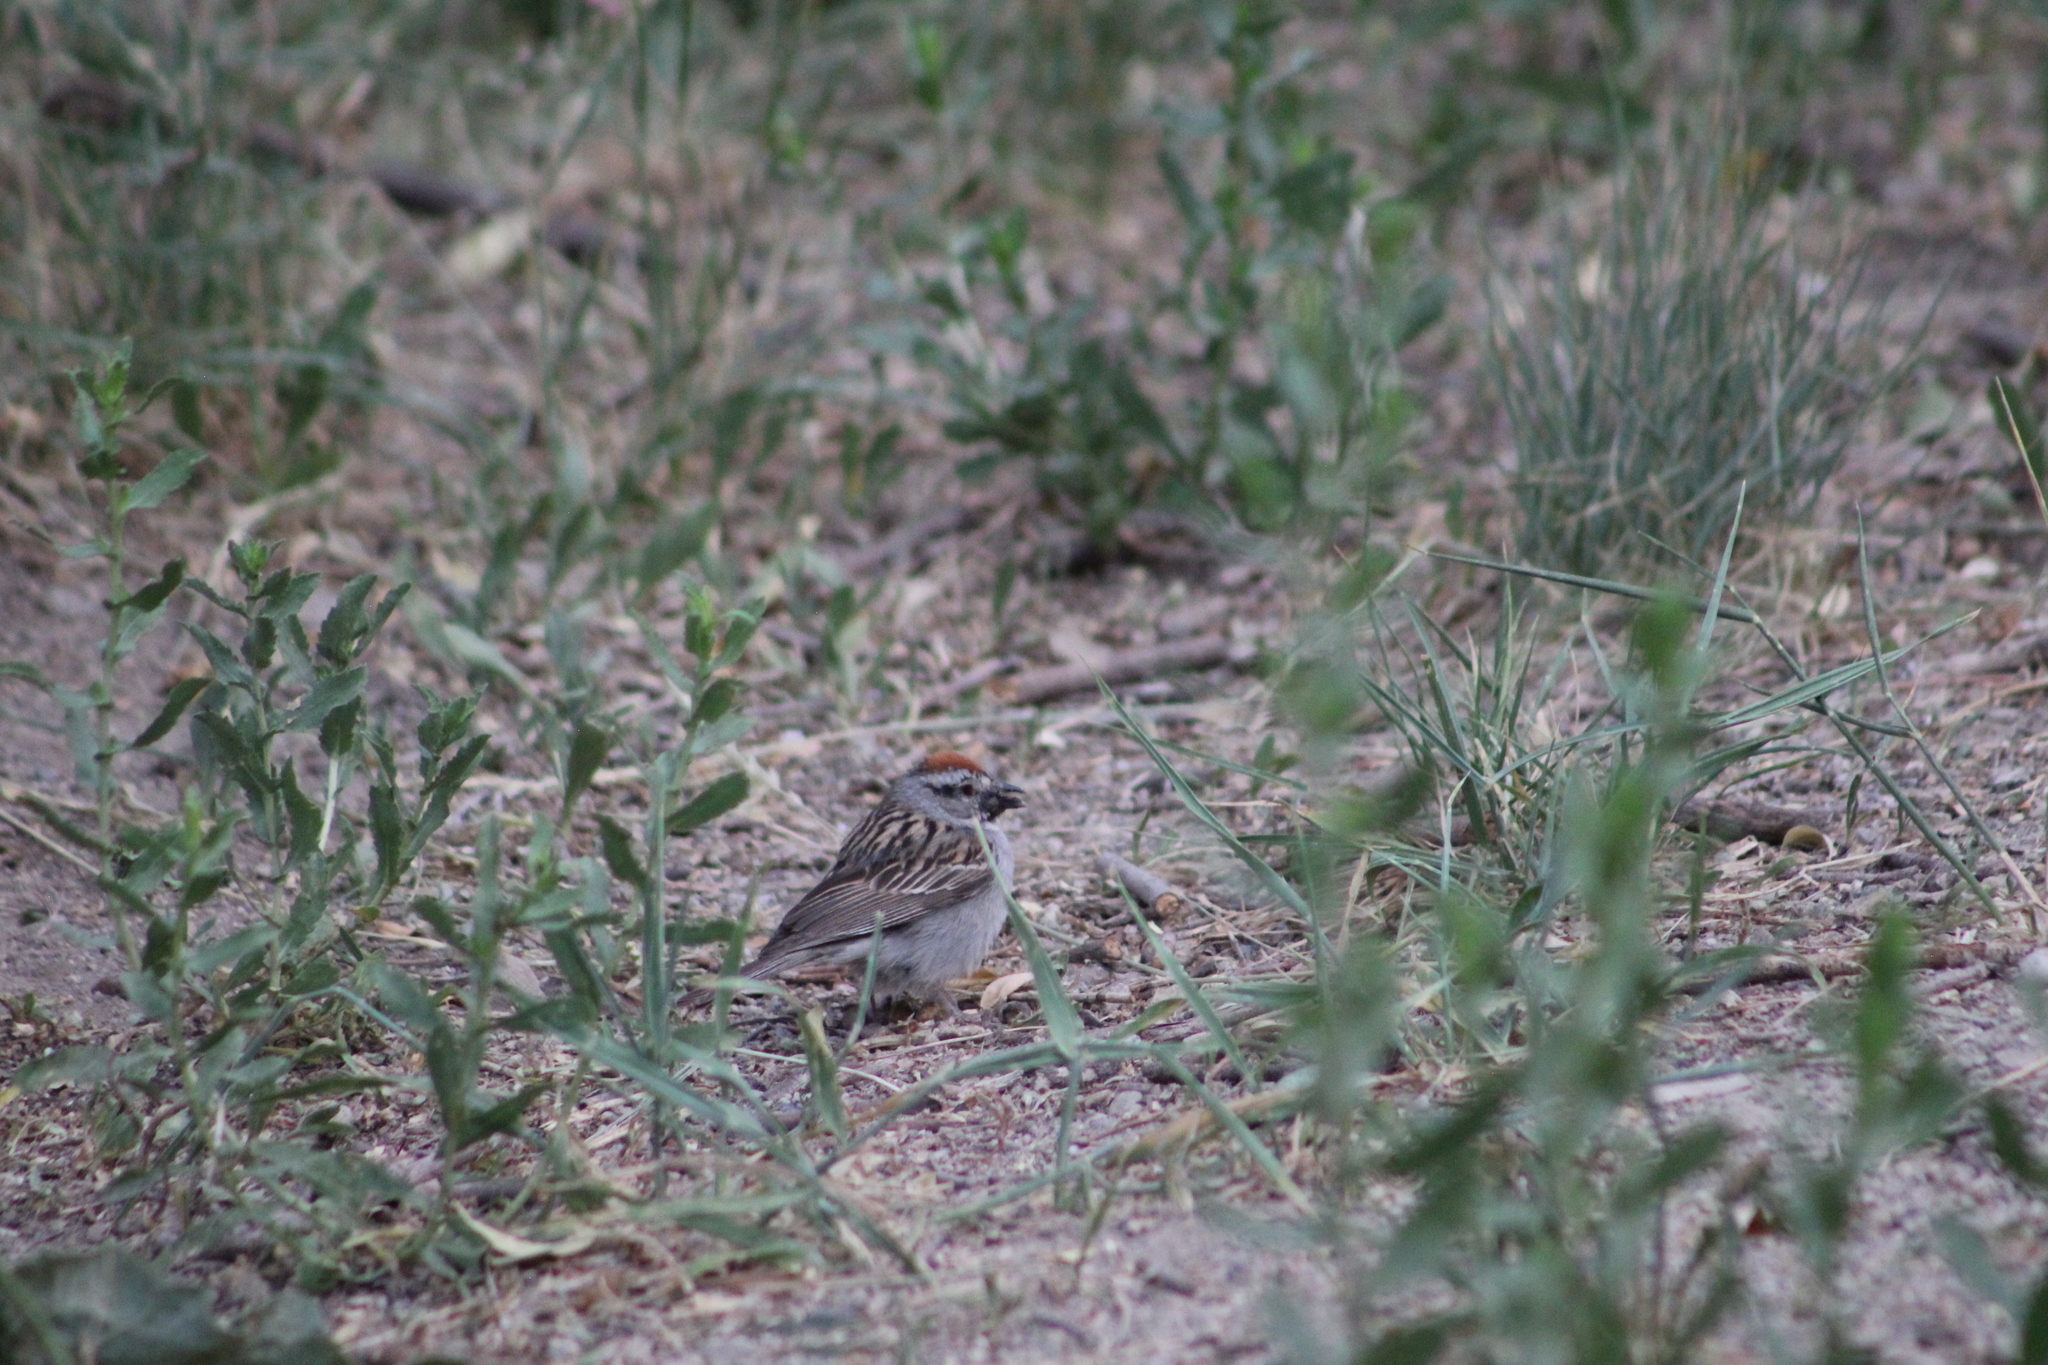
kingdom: Animalia
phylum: Chordata
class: Aves
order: Passeriformes
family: Passerellidae
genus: Spizella
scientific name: Spizella passerina
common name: Chipping sparrow
